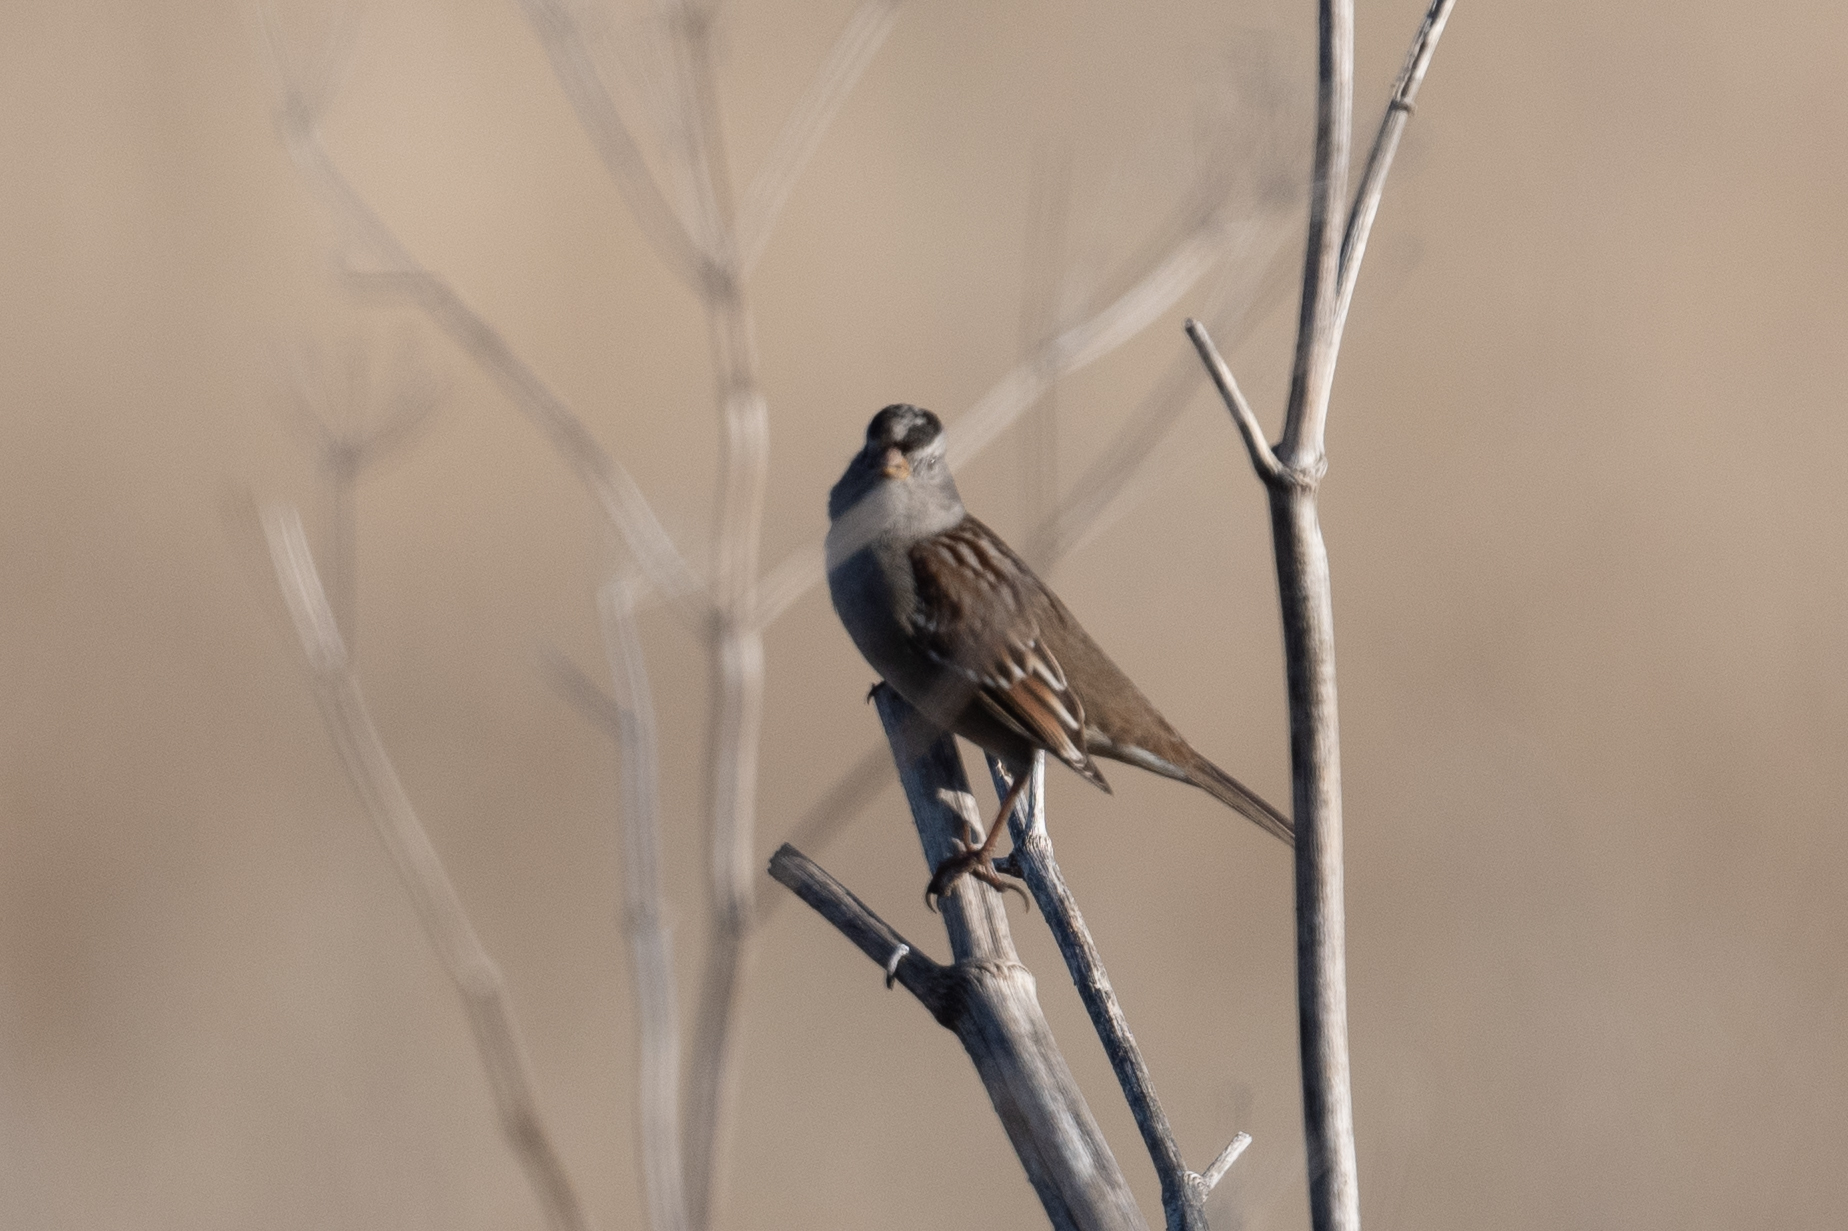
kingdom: Animalia
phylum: Chordata
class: Aves
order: Passeriformes
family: Passerellidae
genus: Zonotrichia
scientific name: Zonotrichia leucophrys
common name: White-crowned sparrow
